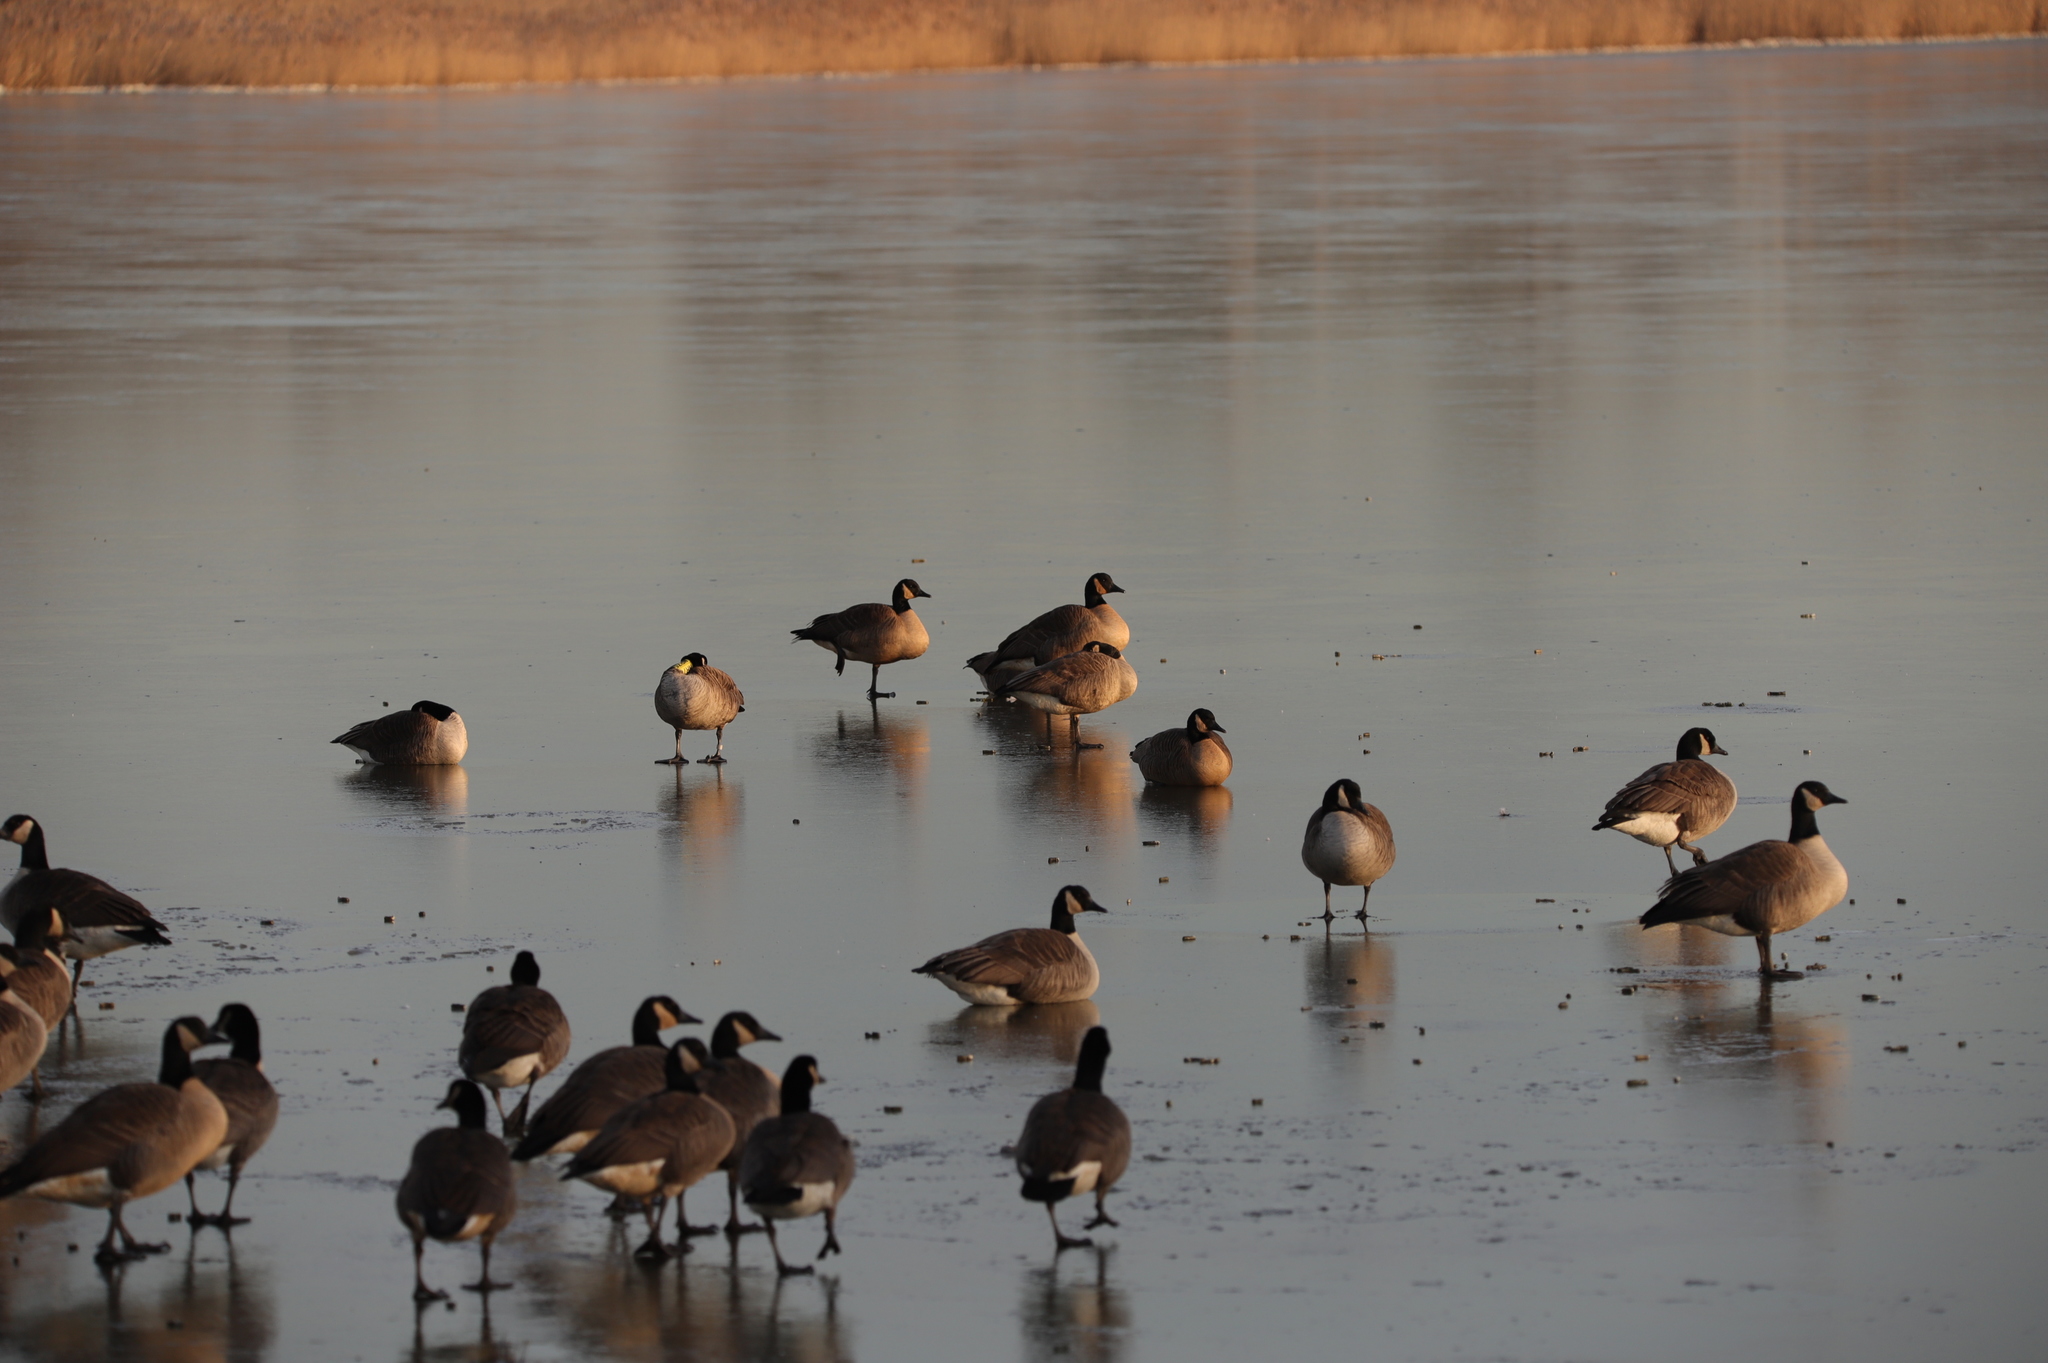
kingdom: Animalia
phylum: Chordata
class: Aves
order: Anseriformes
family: Anatidae
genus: Branta
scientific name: Branta canadensis
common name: Canada goose
